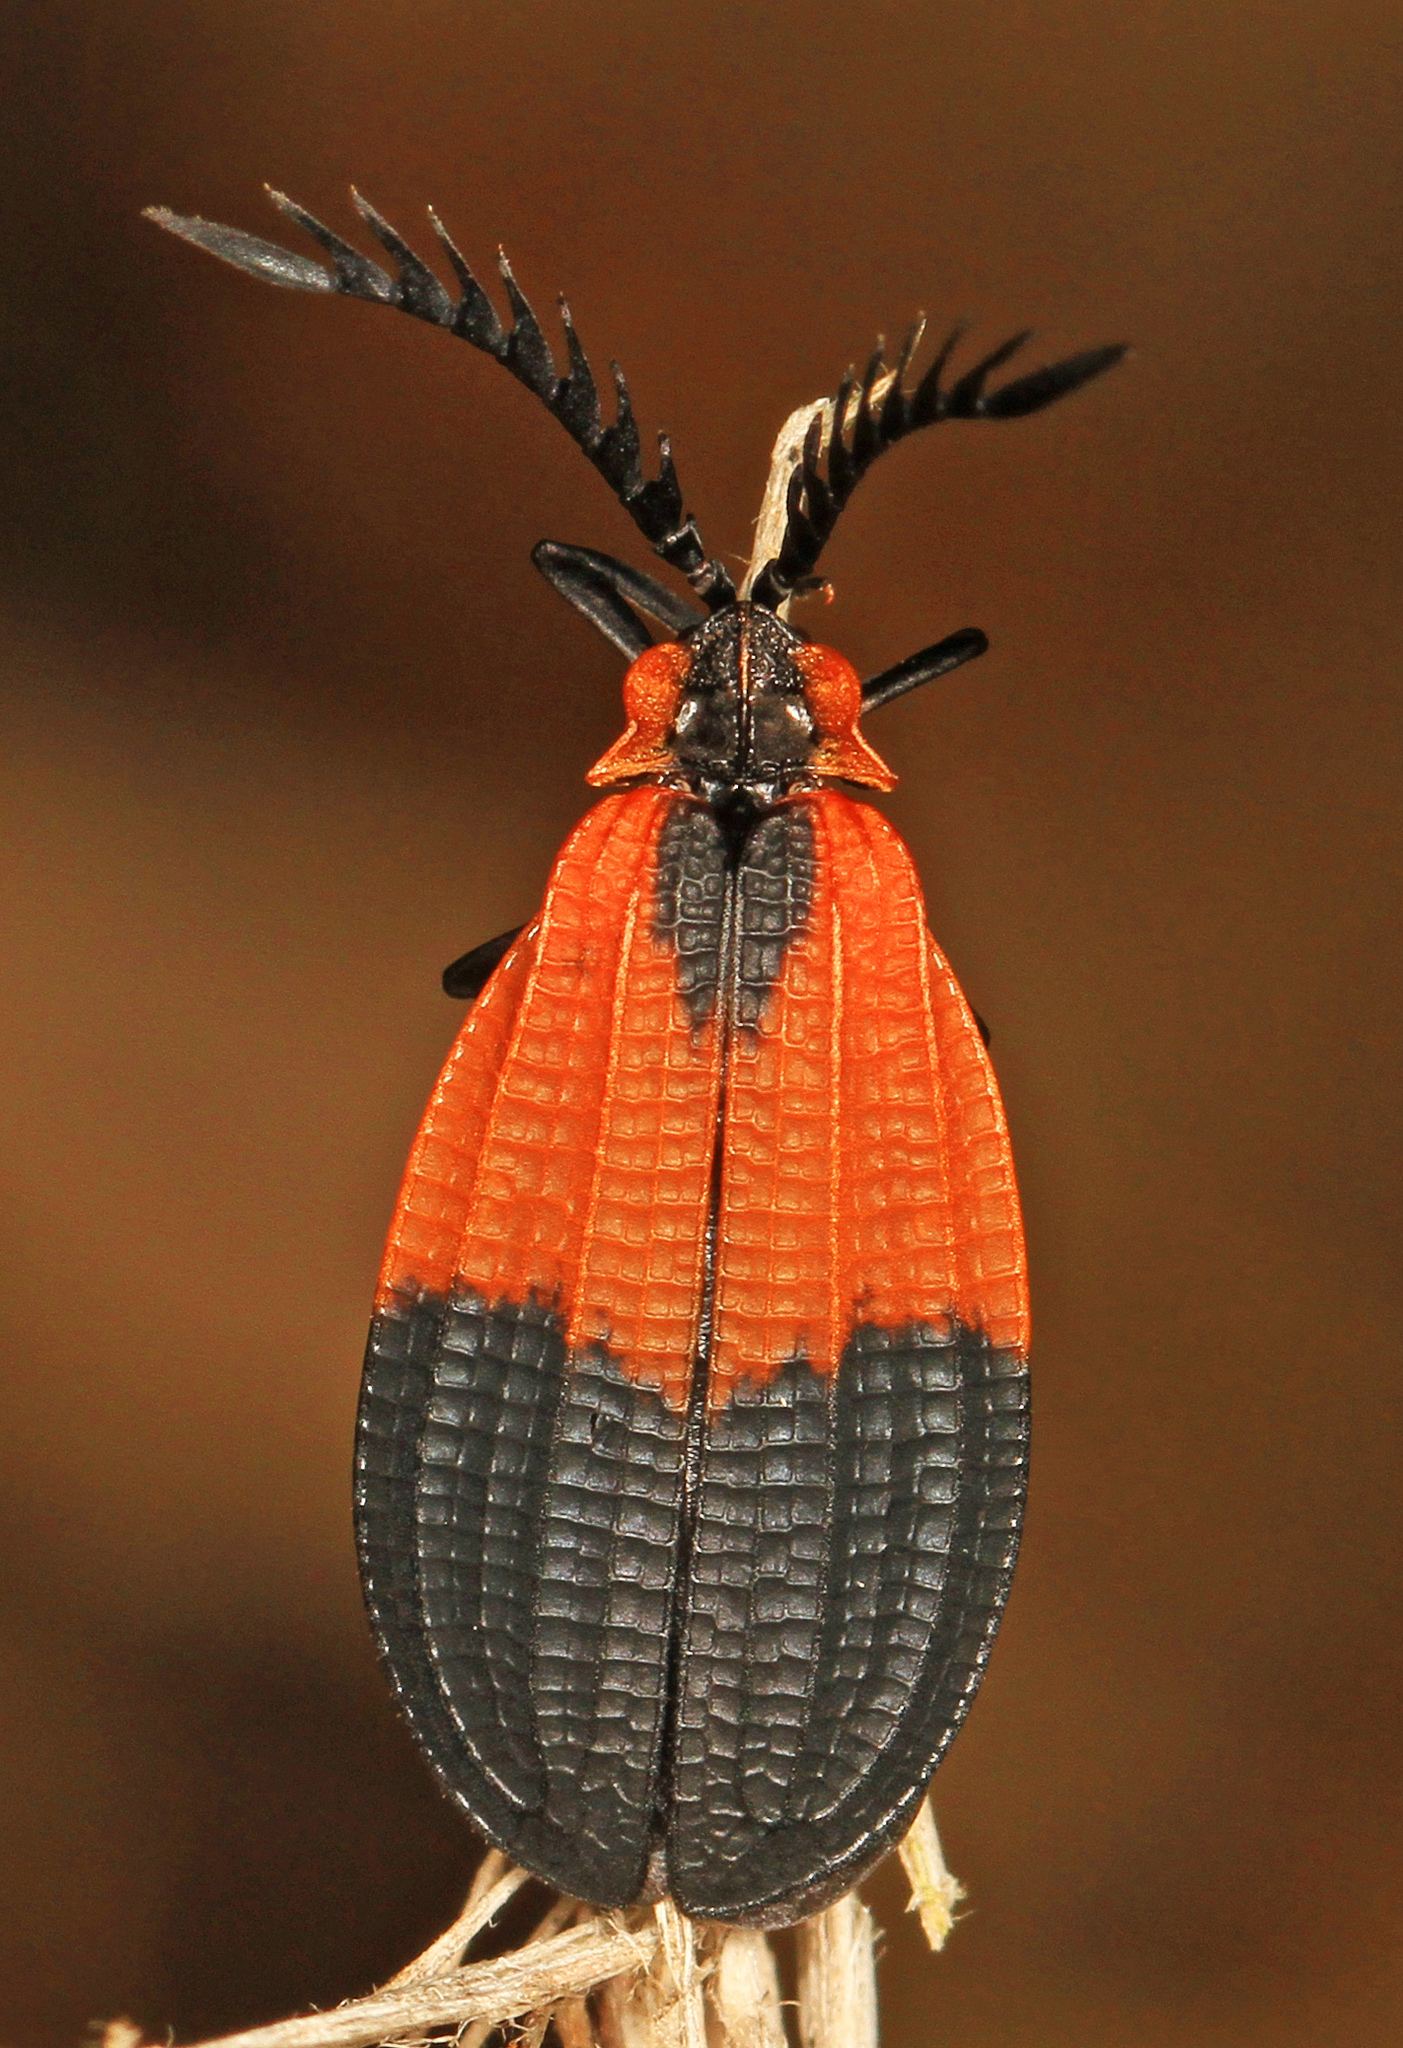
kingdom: Animalia
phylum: Arthropoda
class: Insecta
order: Coleoptera
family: Lycidae
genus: Caenia
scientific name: Caenia dimidiata
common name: Terminal net-winged beetle
